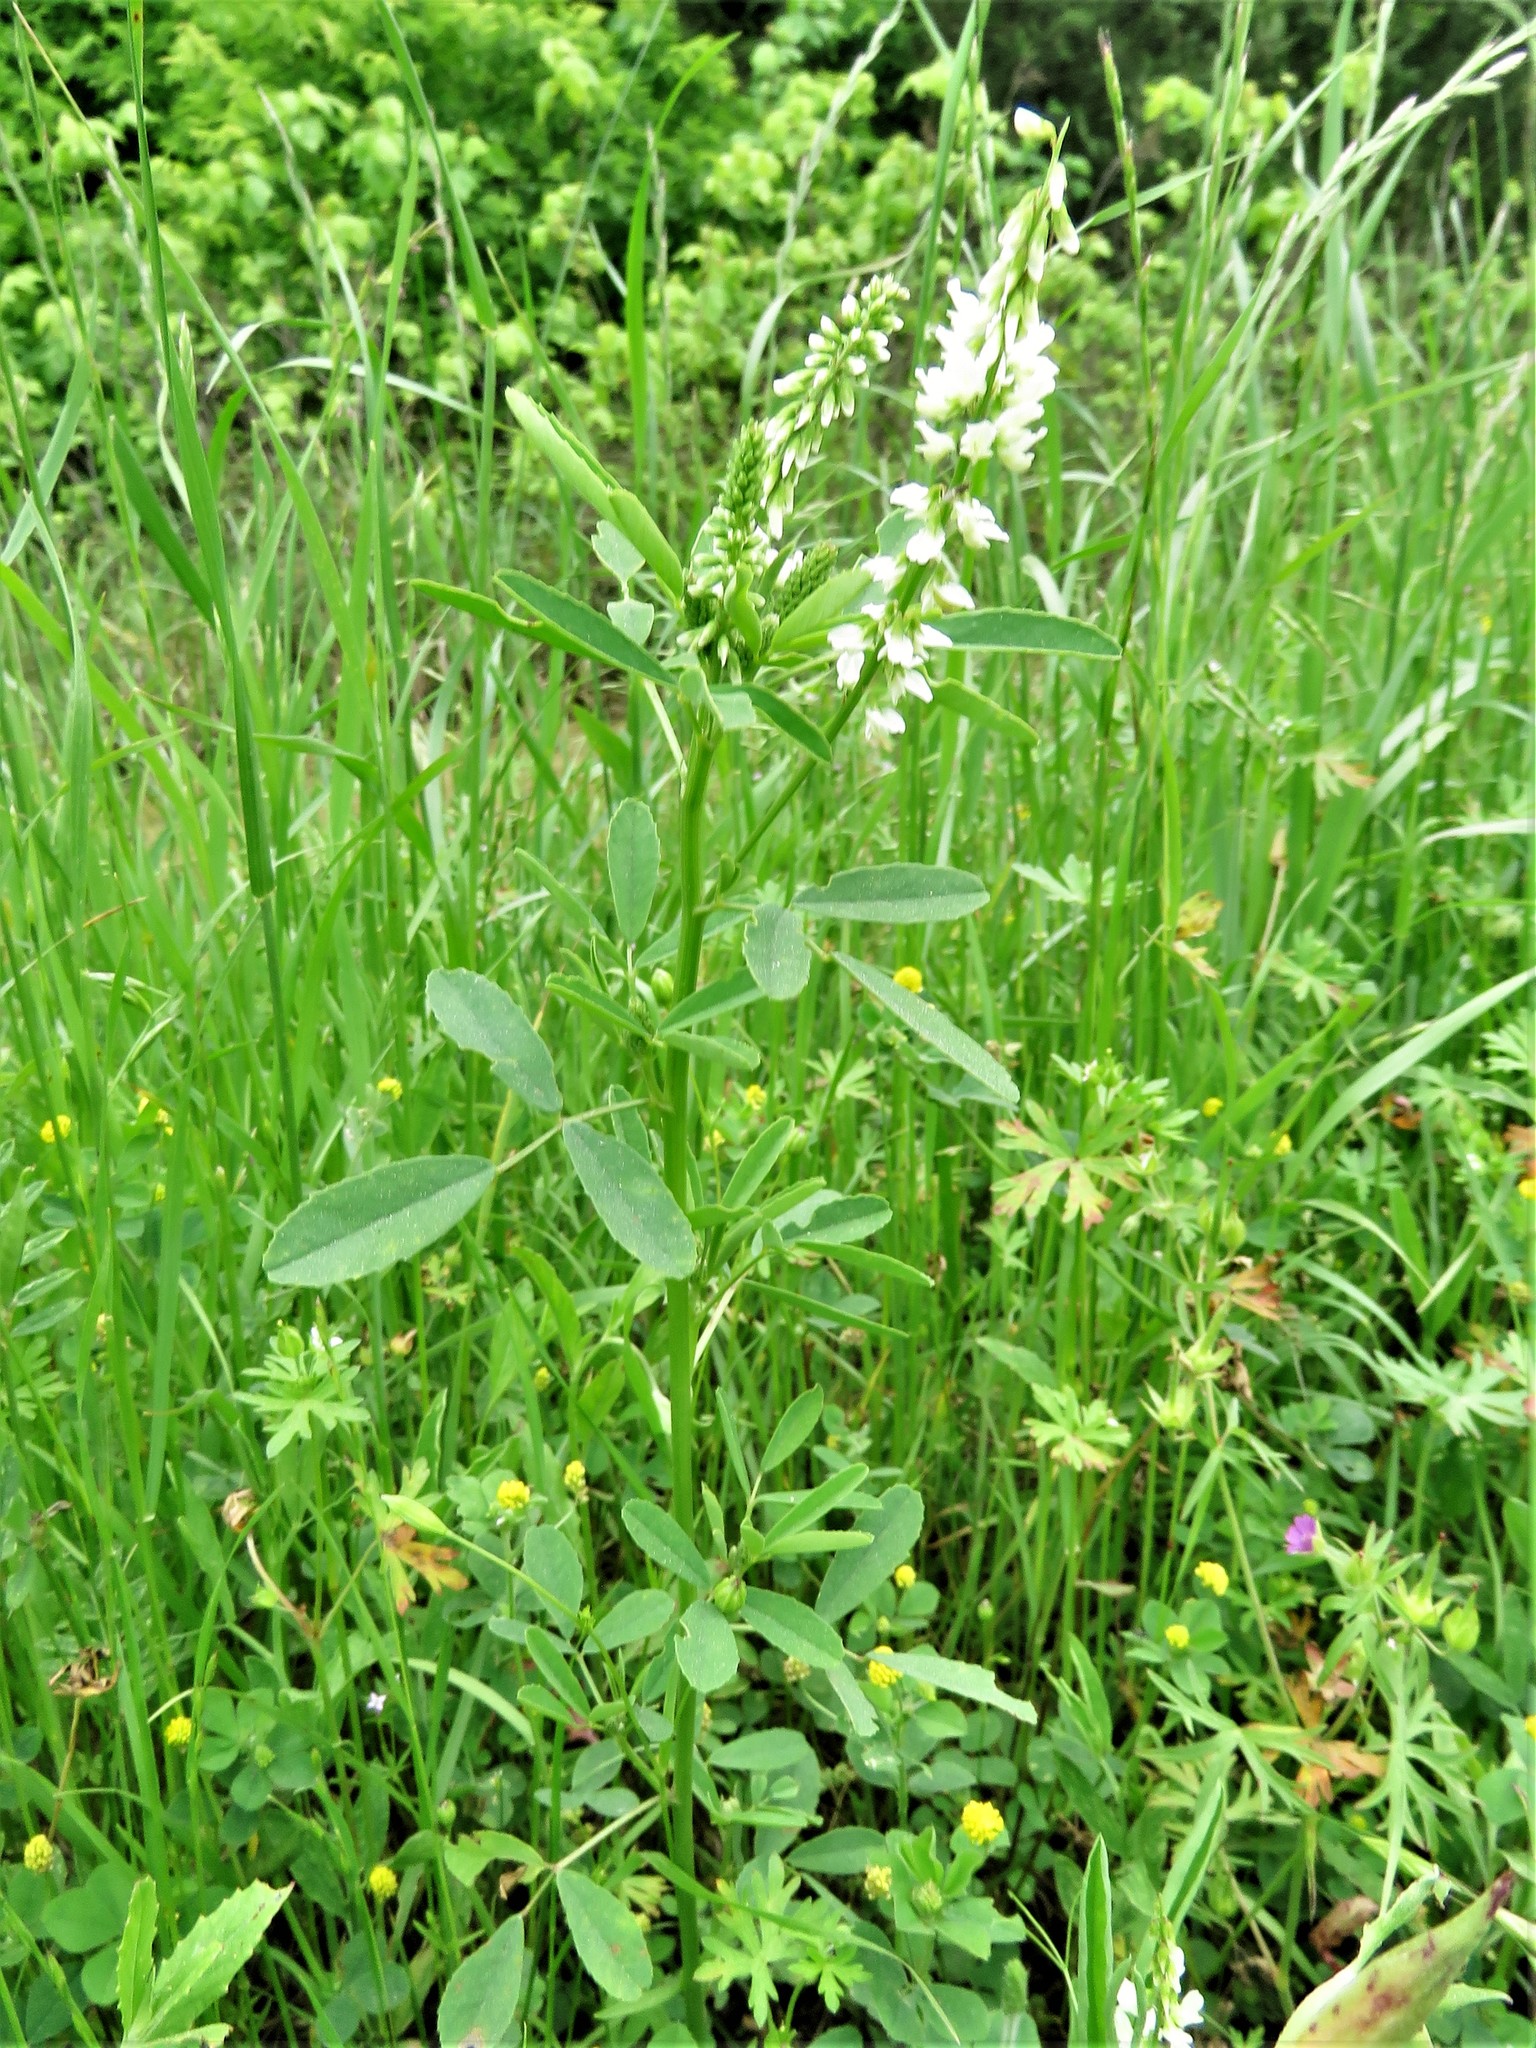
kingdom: Plantae
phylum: Tracheophyta
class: Magnoliopsida
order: Fabales
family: Fabaceae
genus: Melilotus
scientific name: Melilotus albus
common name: White melilot
